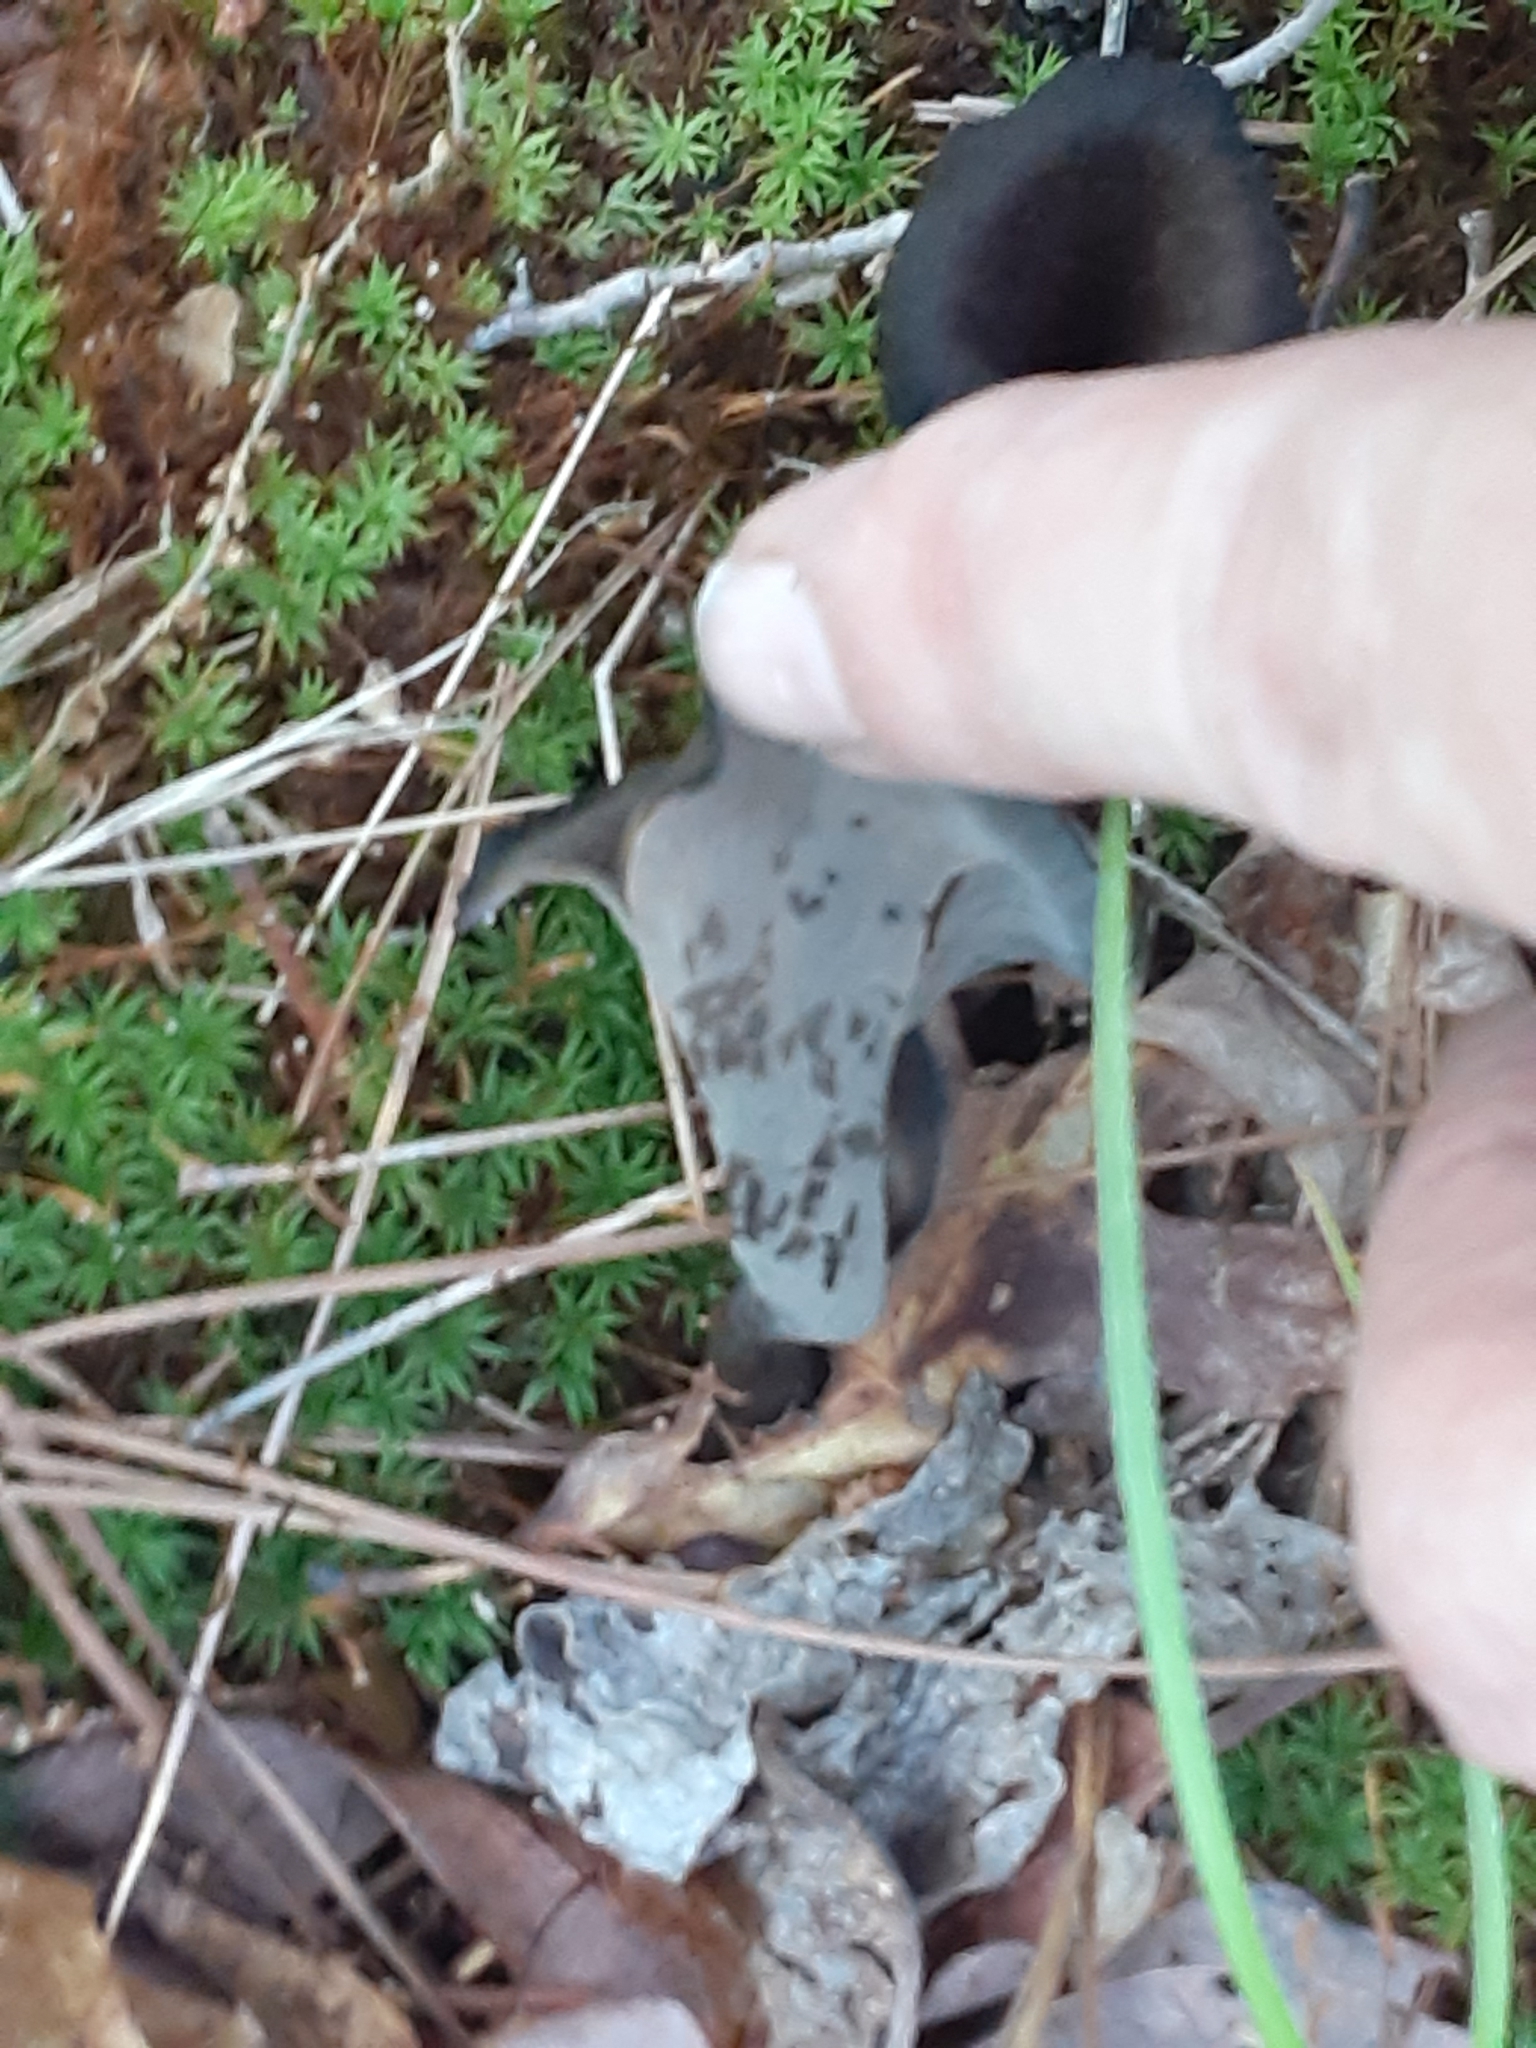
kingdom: Fungi
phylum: Basidiomycota
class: Agaricomycetes
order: Cantharellales
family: Hydnaceae
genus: Craterellus
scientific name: Craterellus cornucopioides
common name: Horn of plenty
